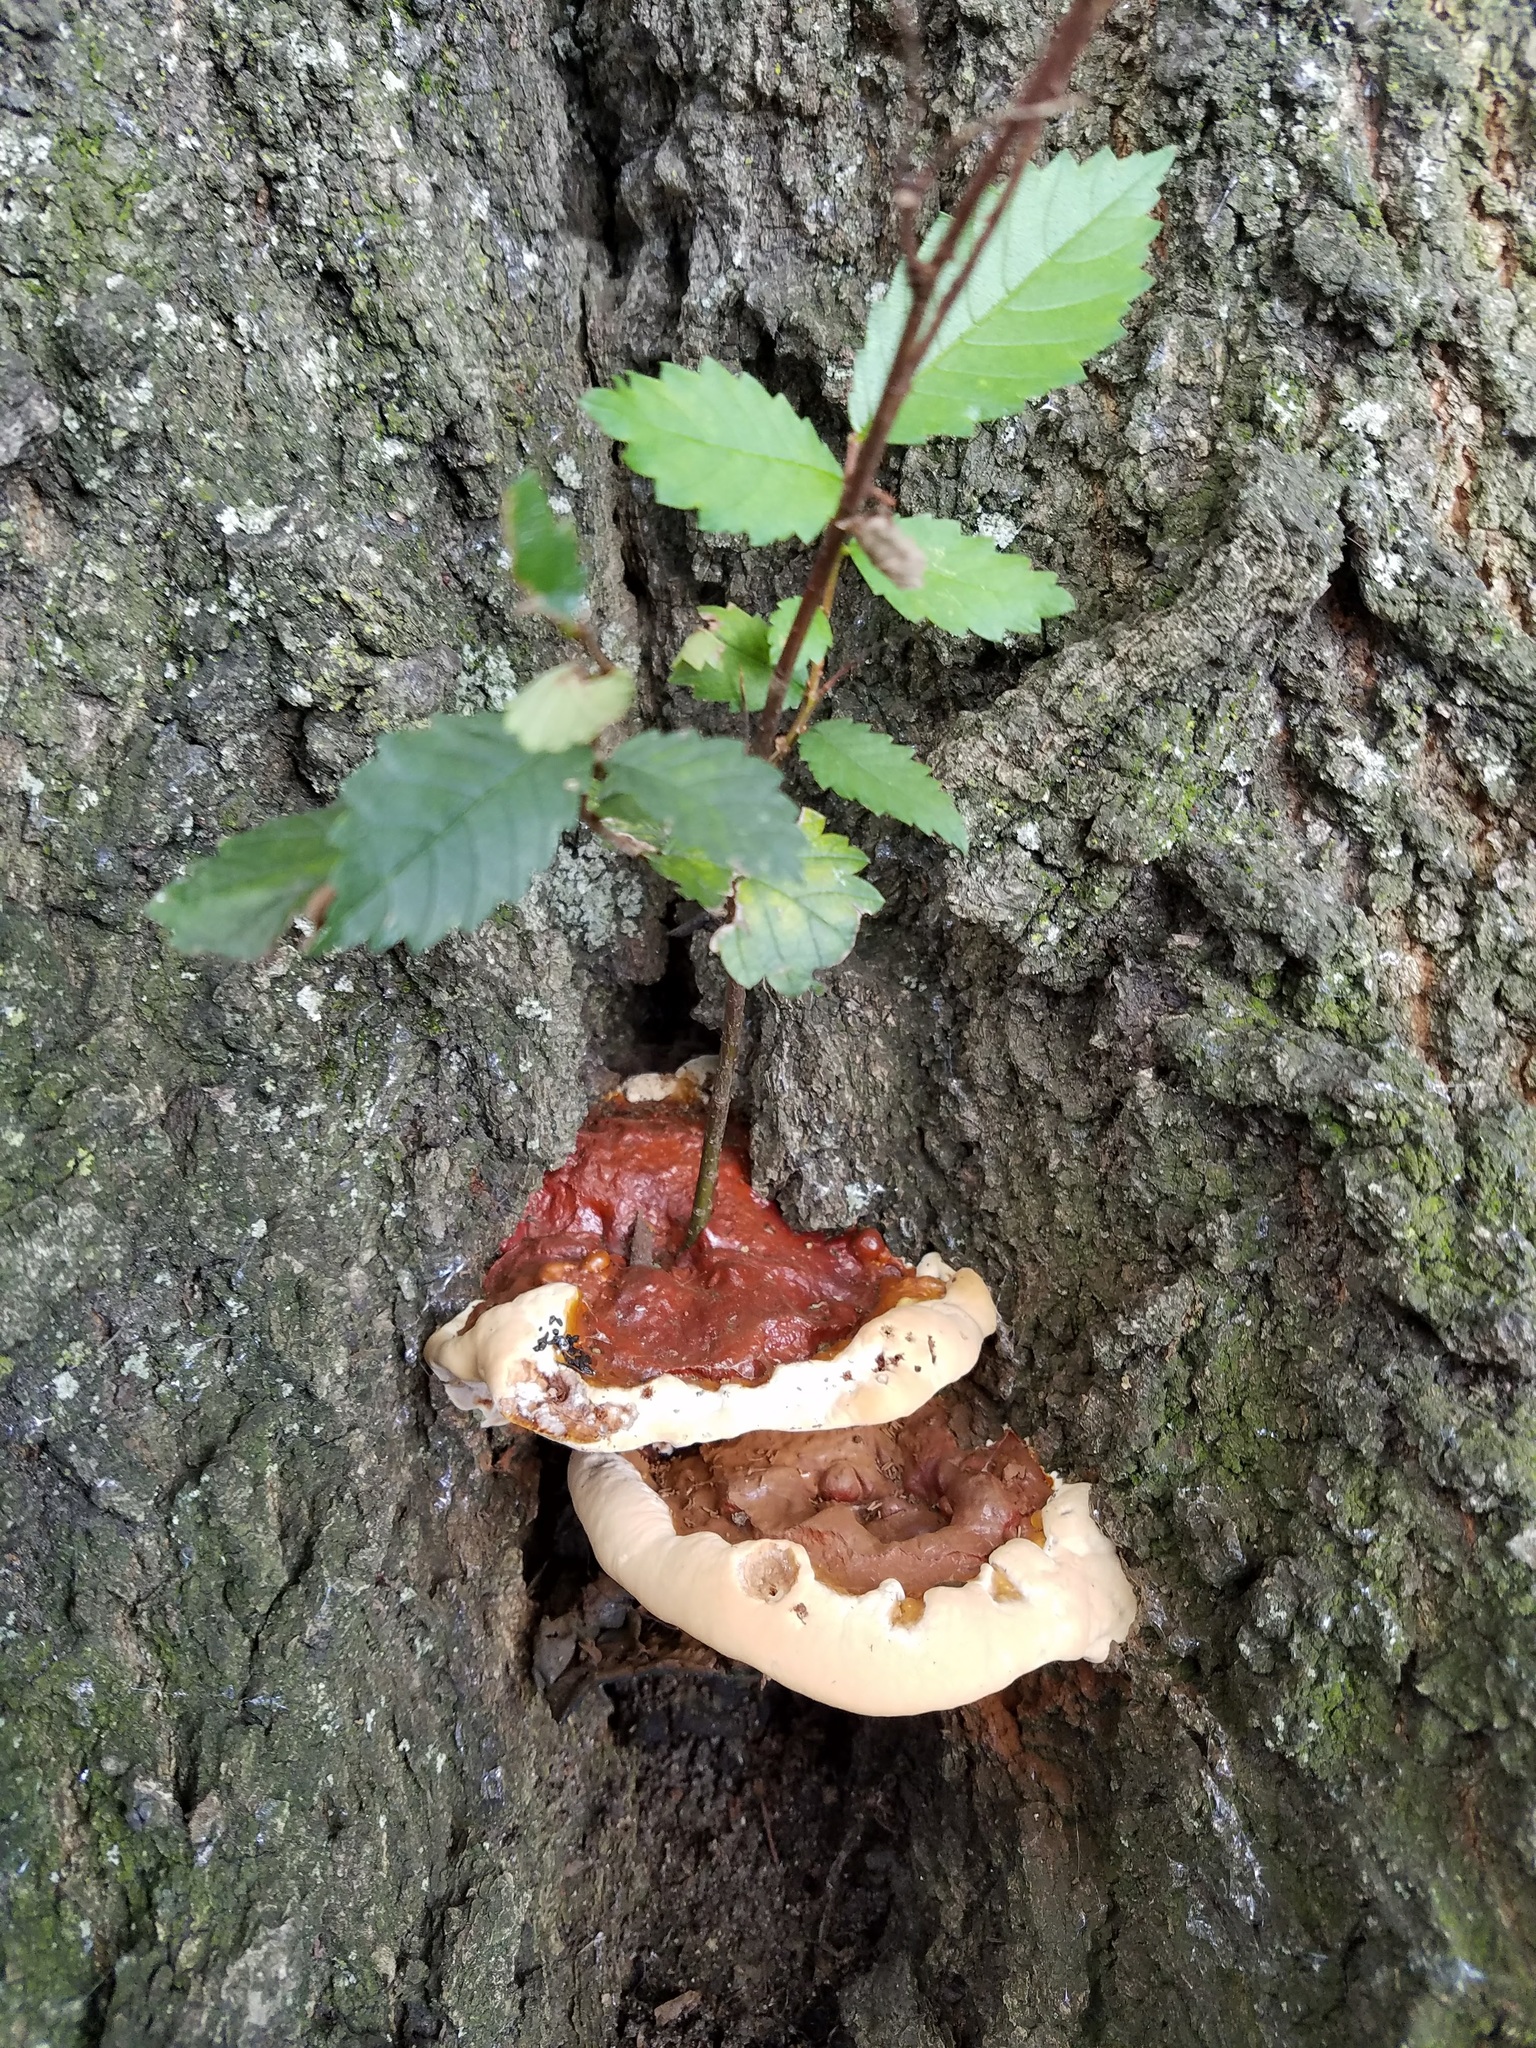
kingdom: Fungi
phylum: Basidiomycota
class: Agaricomycetes
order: Polyporales
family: Polyporaceae
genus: Ganoderma
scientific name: Ganoderma resinaceum
